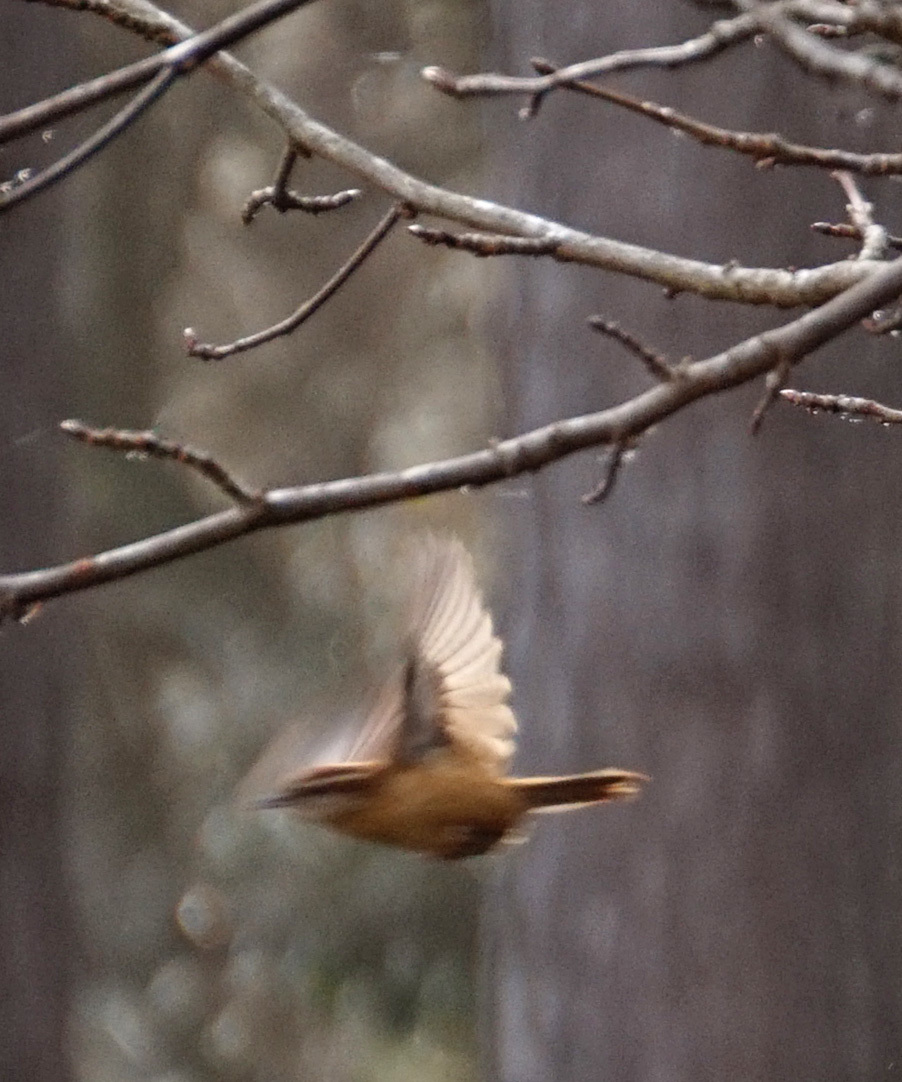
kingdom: Animalia
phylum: Chordata
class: Aves
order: Passeriformes
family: Troglodytidae
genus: Thryothorus
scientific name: Thryothorus ludovicianus
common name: Carolina wren
